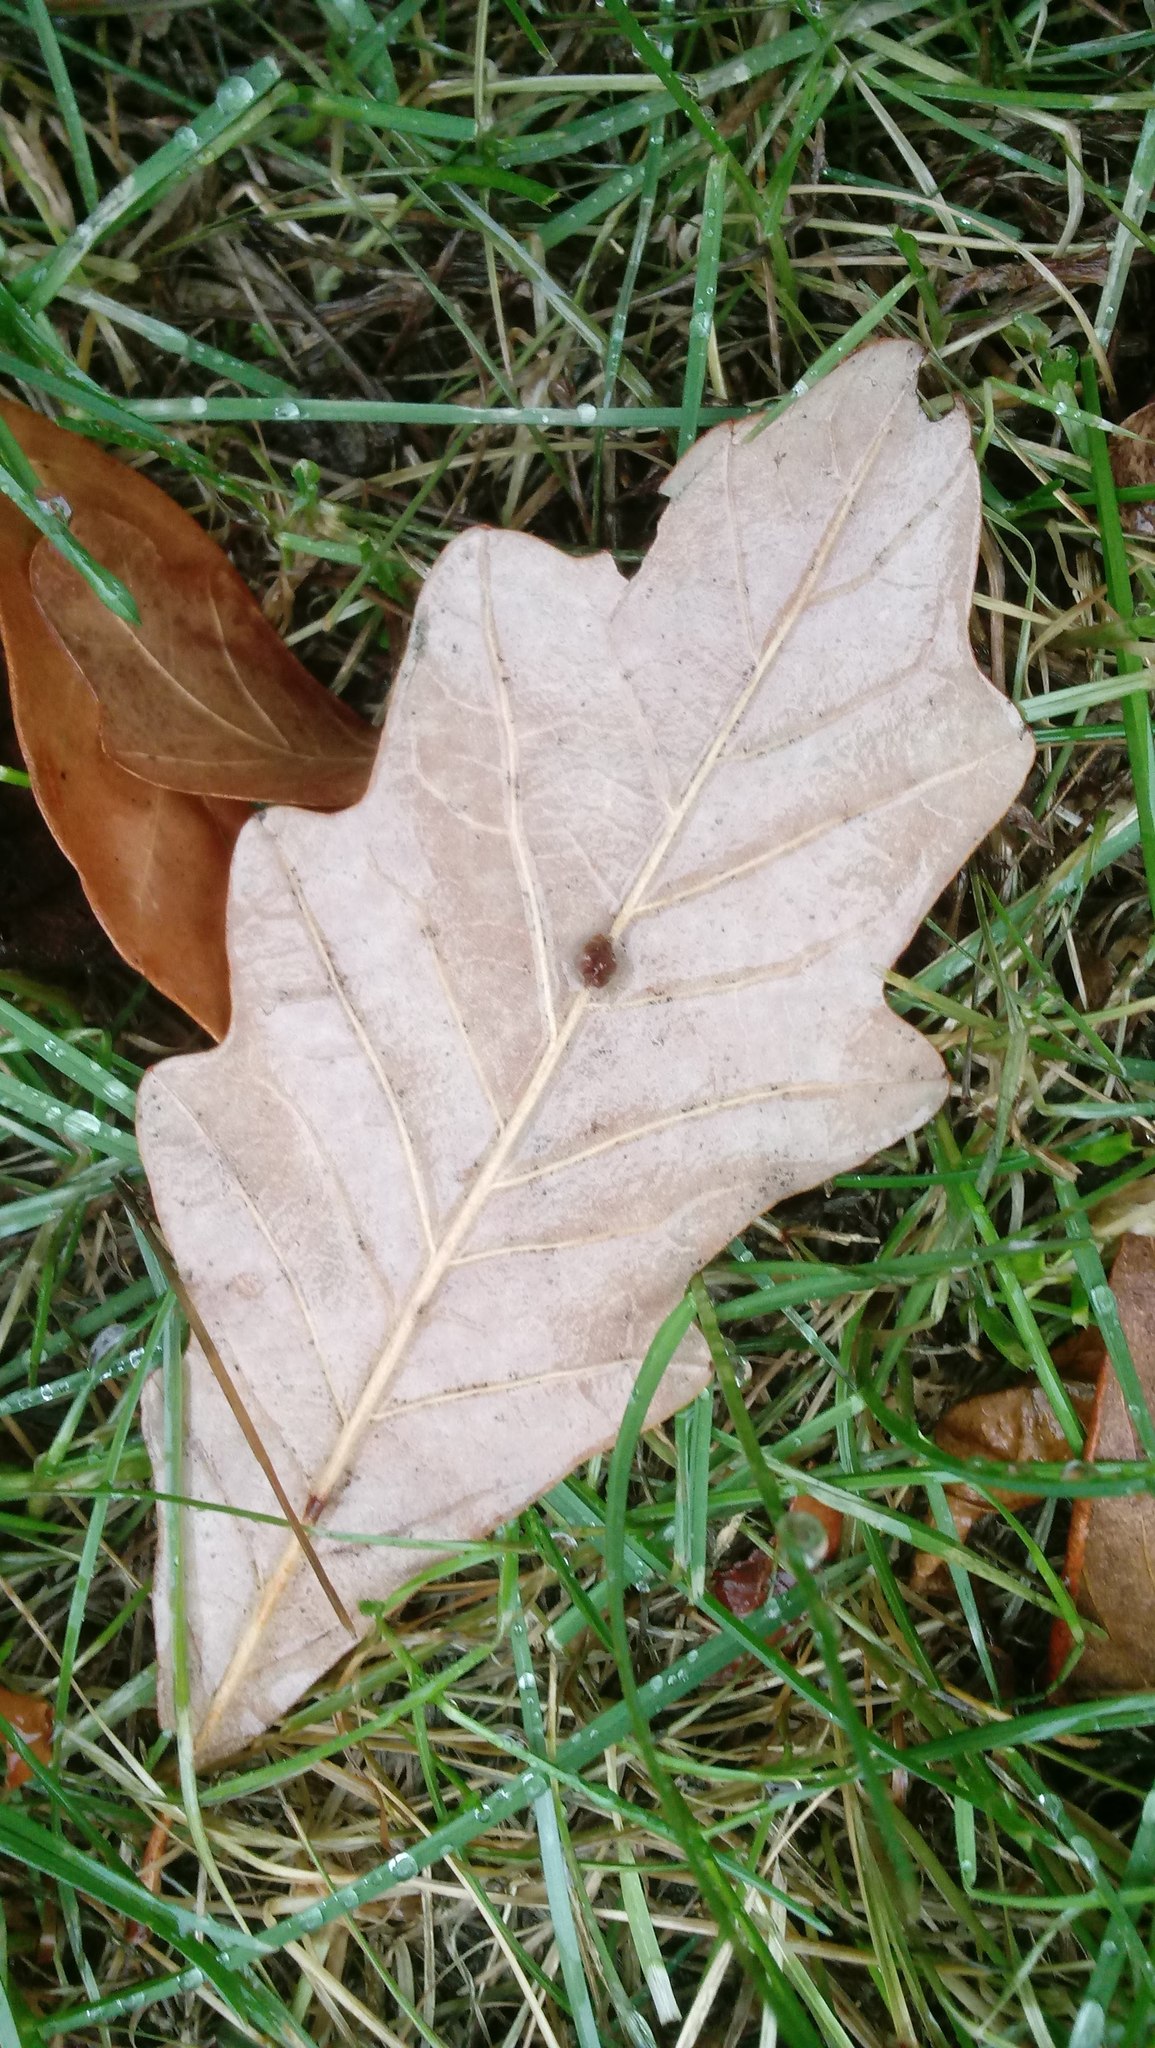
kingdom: Animalia
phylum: Arthropoda
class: Insecta
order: Hymenoptera
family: Cynipidae
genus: Andricus
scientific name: Andricus Druon ignotum
